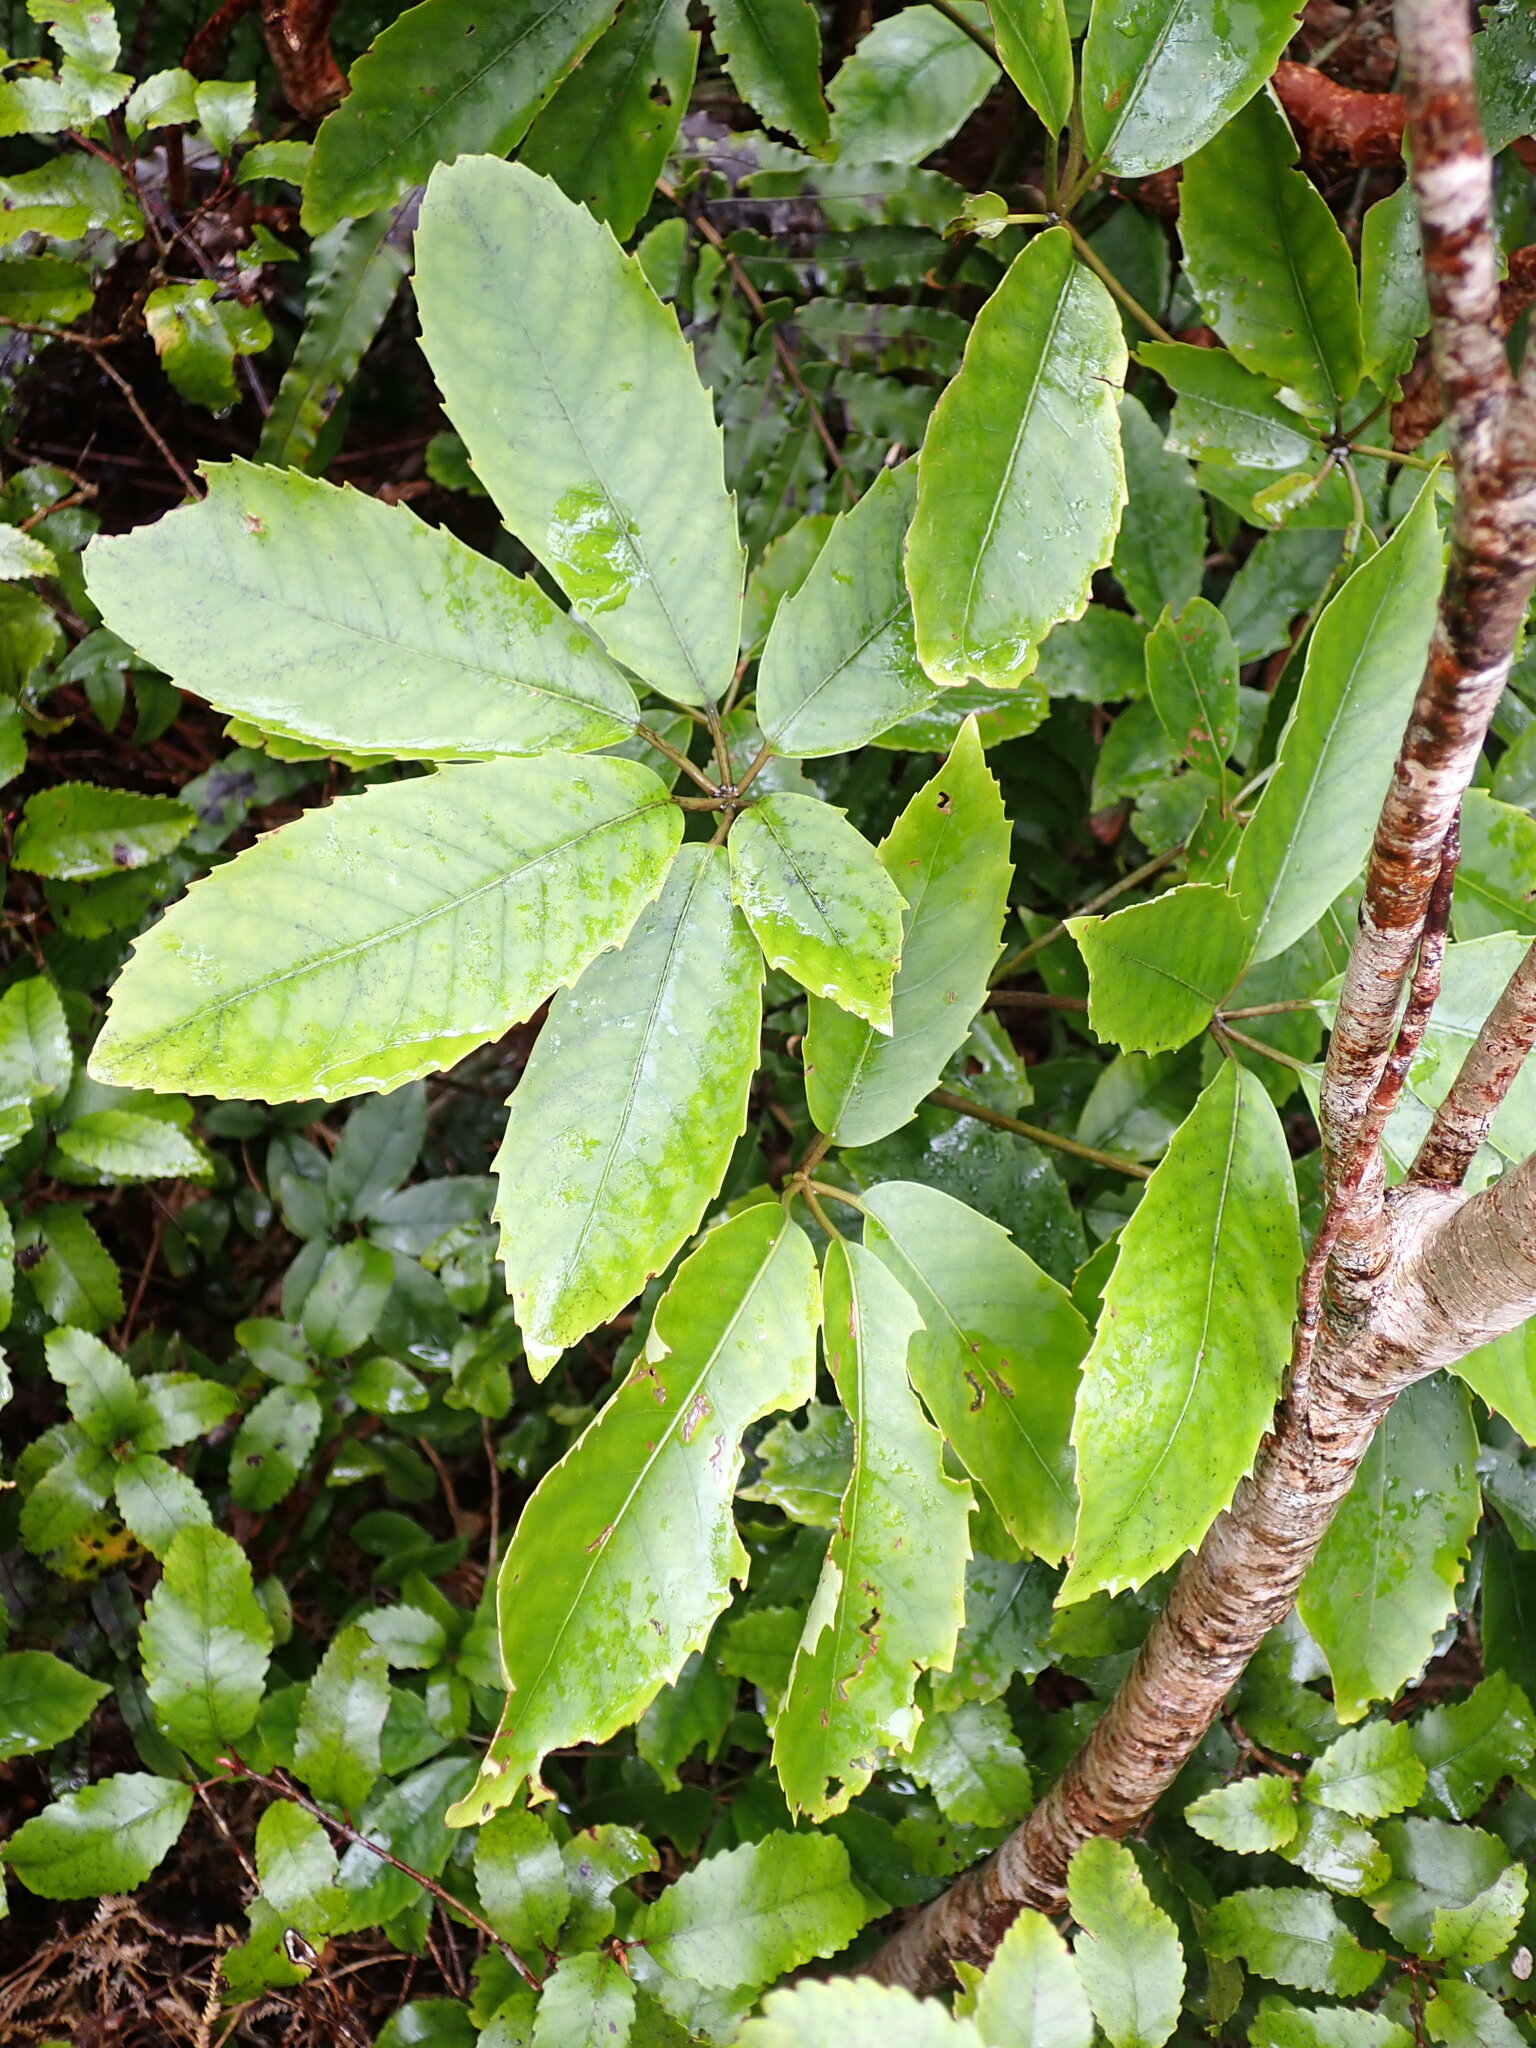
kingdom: Plantae
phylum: Tracheophyta
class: Magnoliopsida
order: Apiales
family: Araliaceae
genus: Neopanax
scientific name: Neopanax arboreus
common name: Five-fingers
